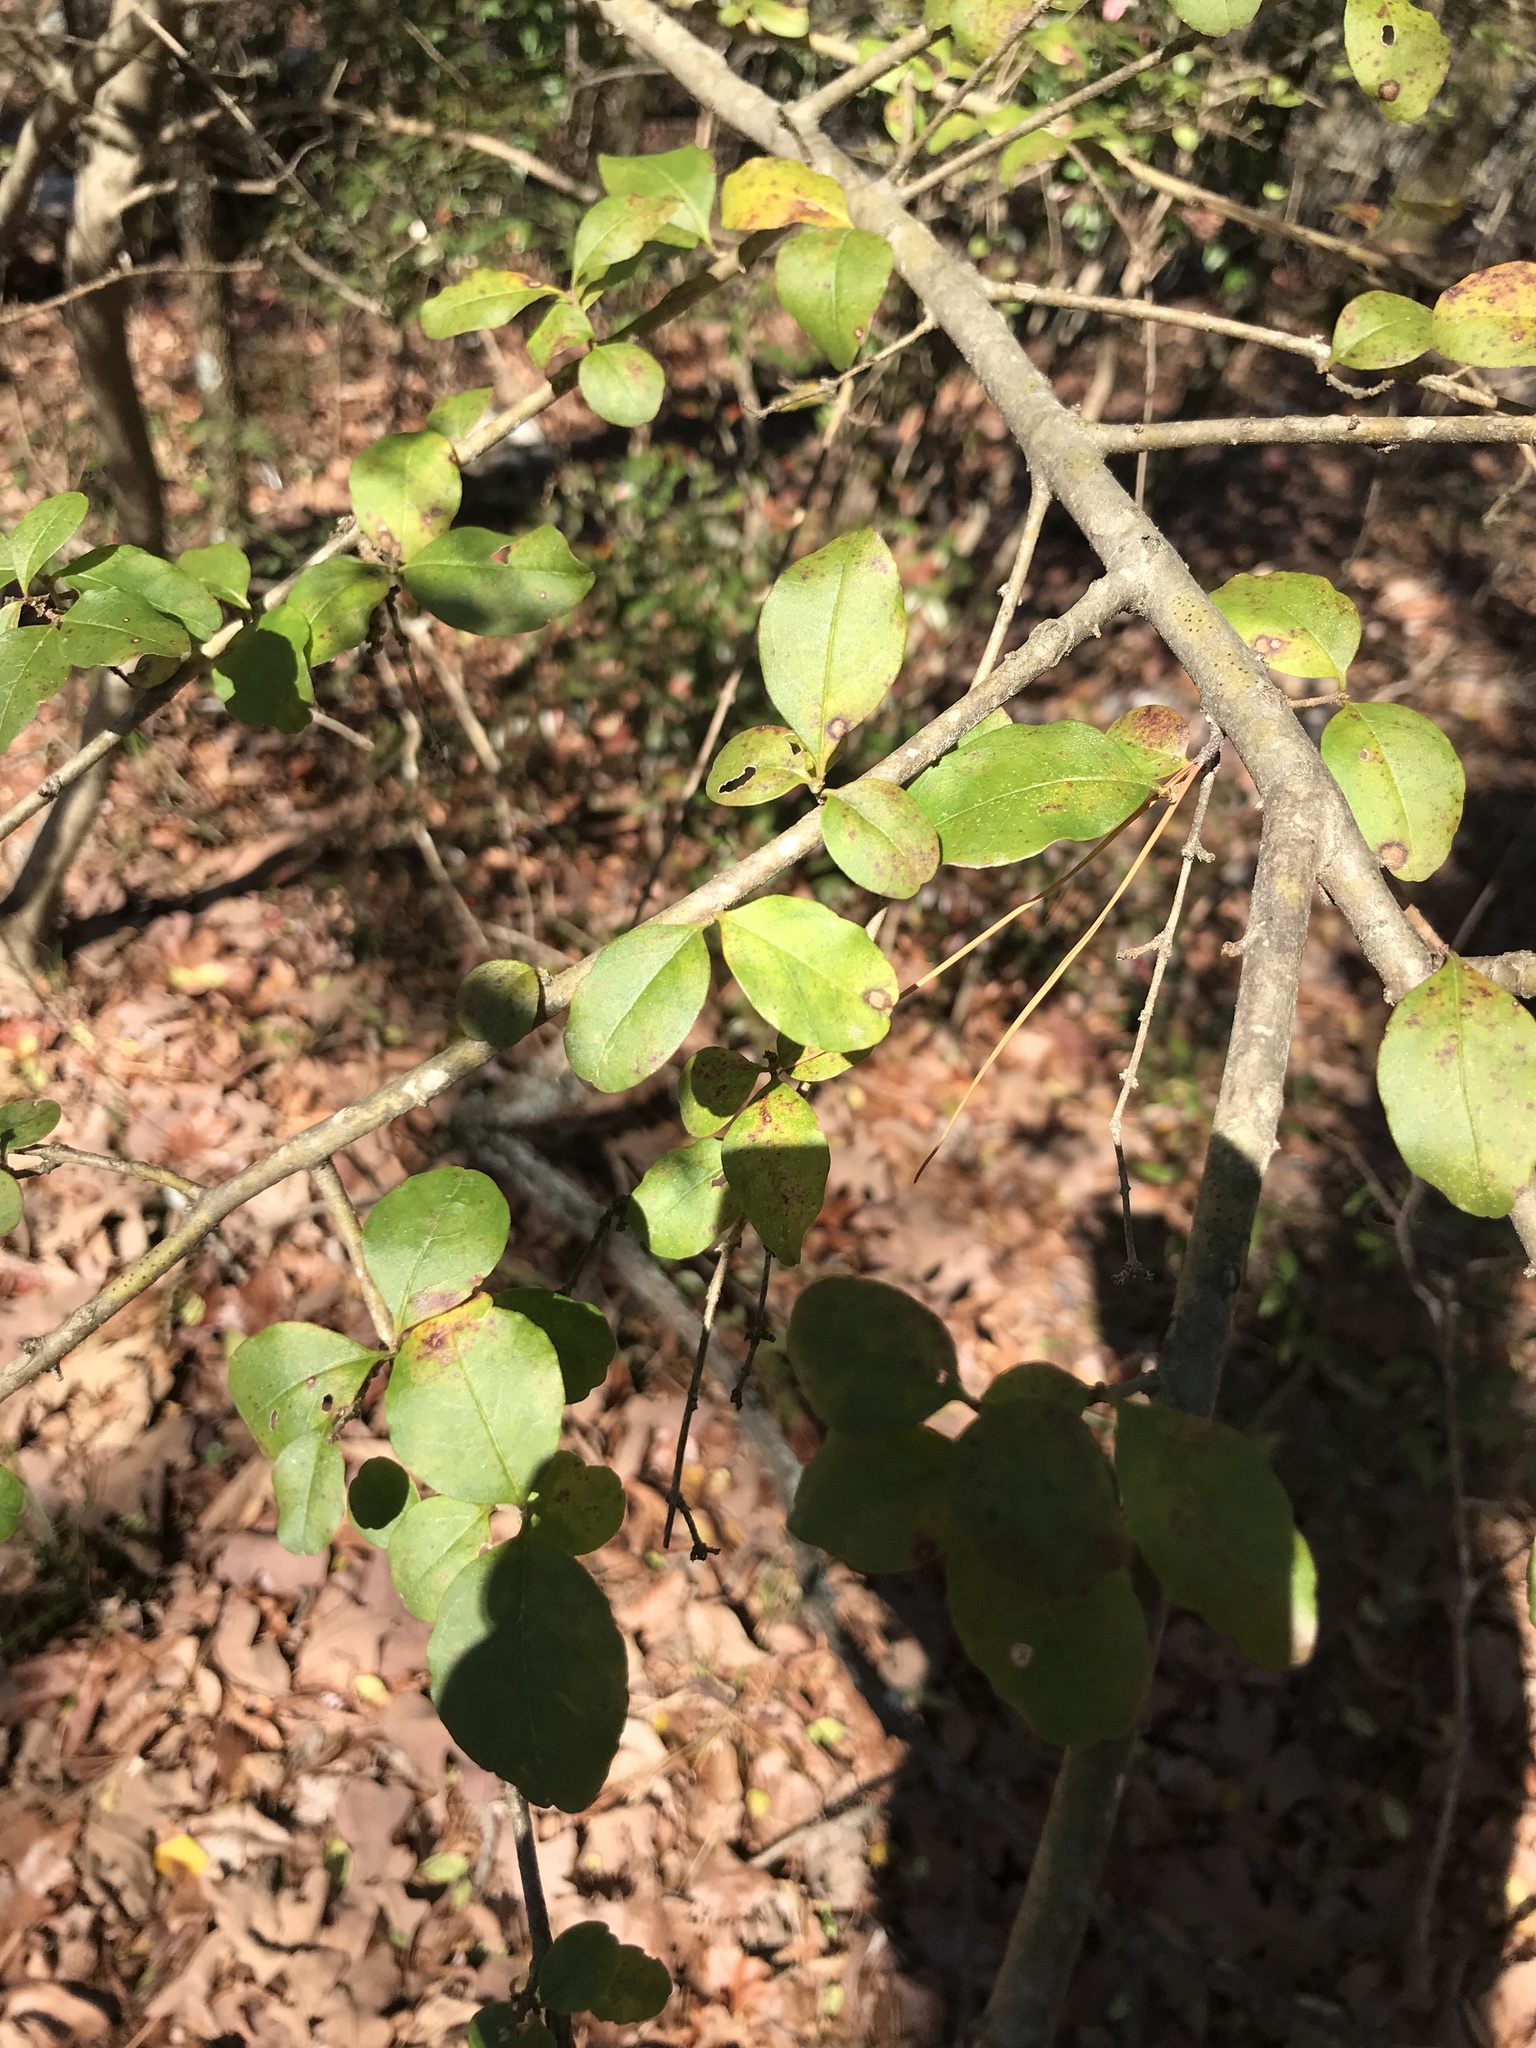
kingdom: Plantae
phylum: Tracheophyta
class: Magnoliopsida
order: Lamiales
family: Oleaceae
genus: Ligustrum
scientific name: Ligustrum sinense
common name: Chinese privet
